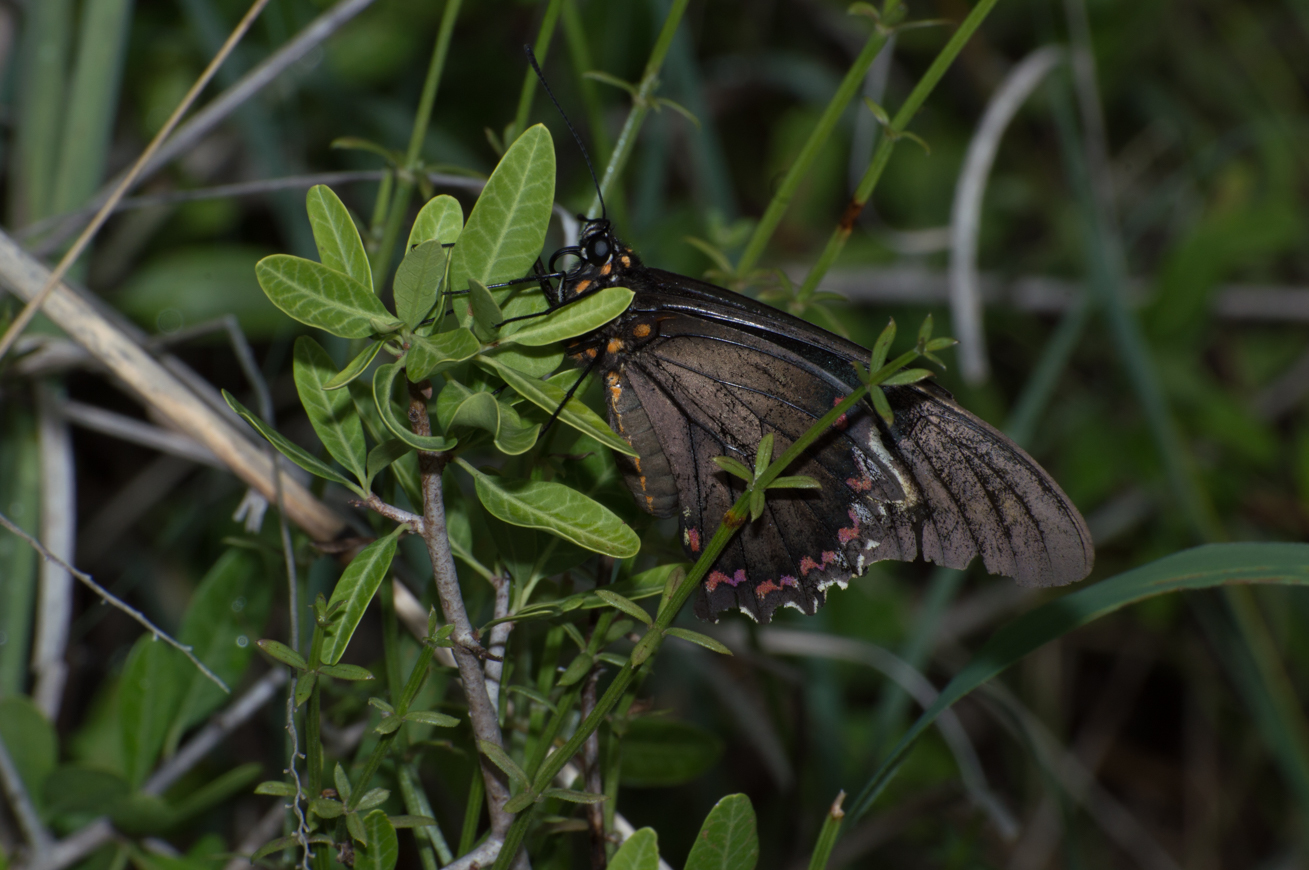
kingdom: Animalia
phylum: Arthropoda
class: Insecta
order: Lepidoptera
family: Papilionidae
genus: Battus
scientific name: Battus polydamas
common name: Polydamas swallowtail
